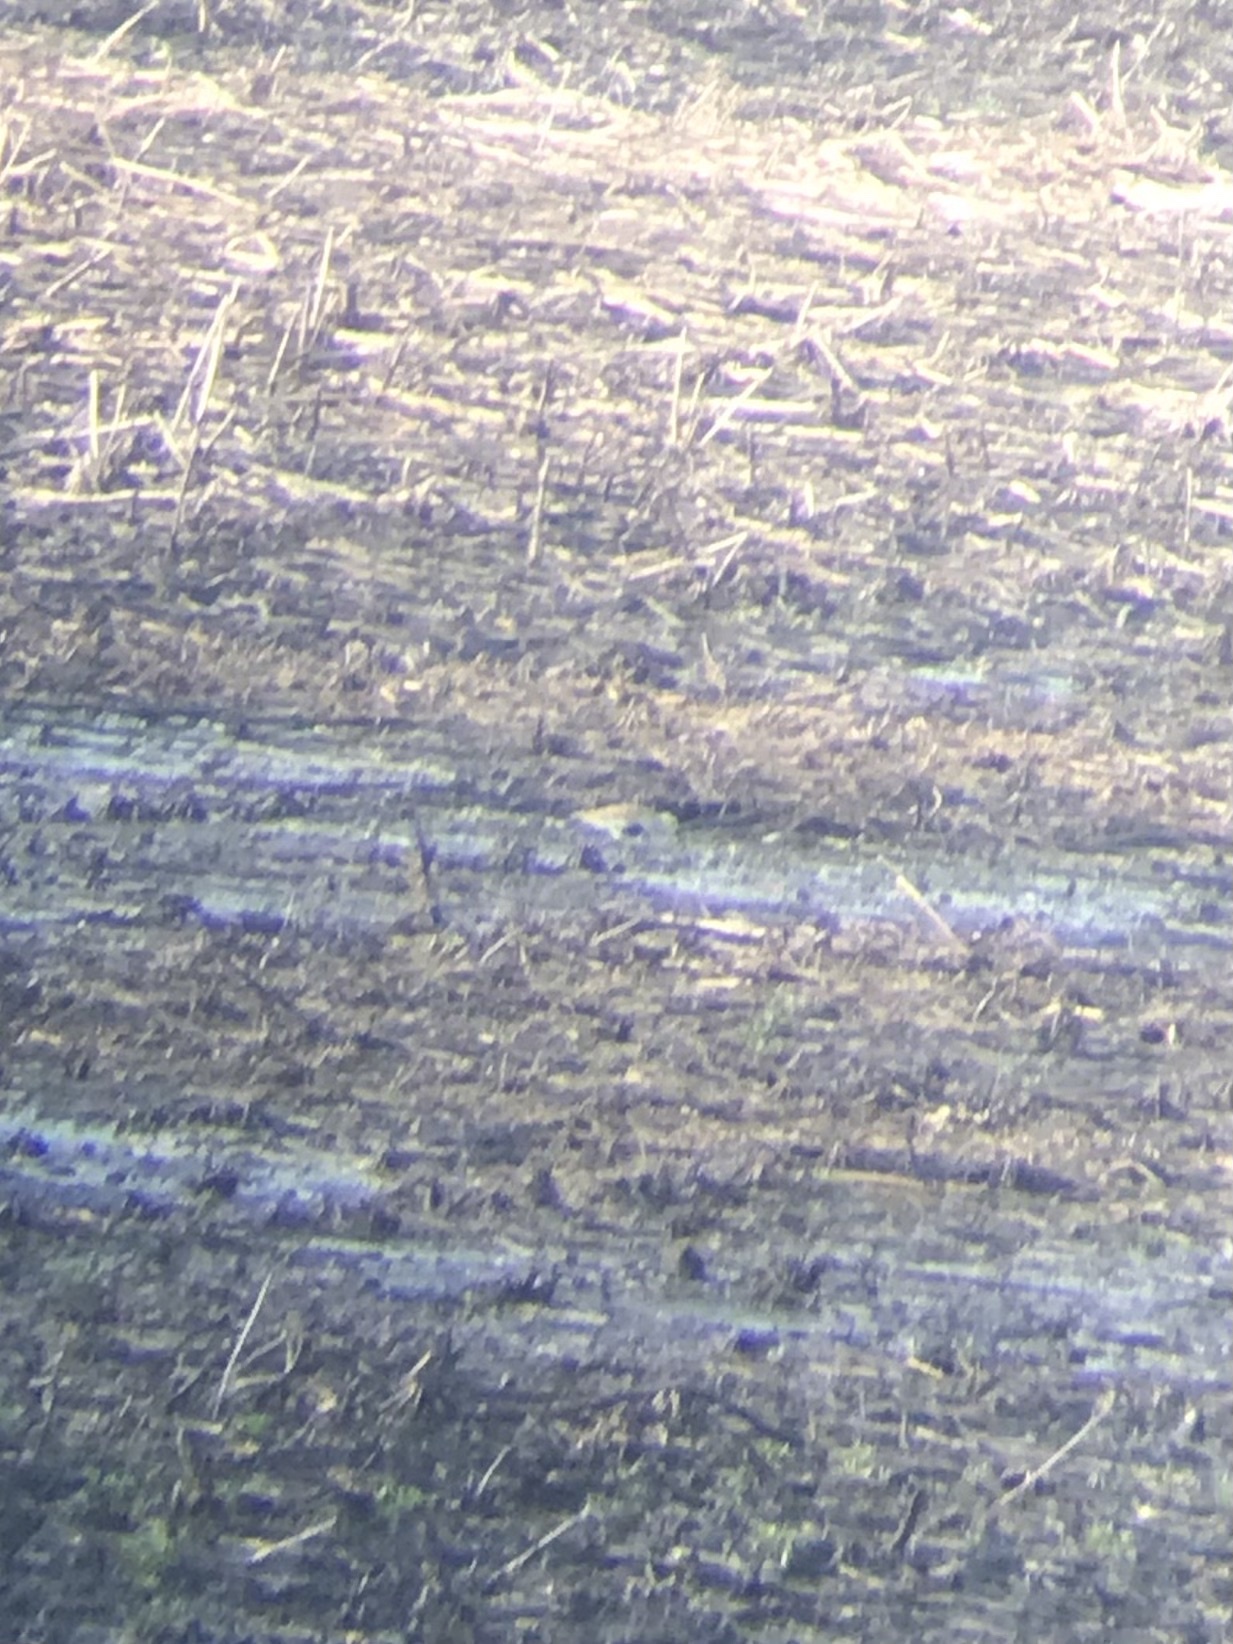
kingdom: Animalia
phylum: Chordata
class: Aves
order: Charadriiformes
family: Scolopacidae
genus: Calidris
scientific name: Calidris alpina
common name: Dunlin
